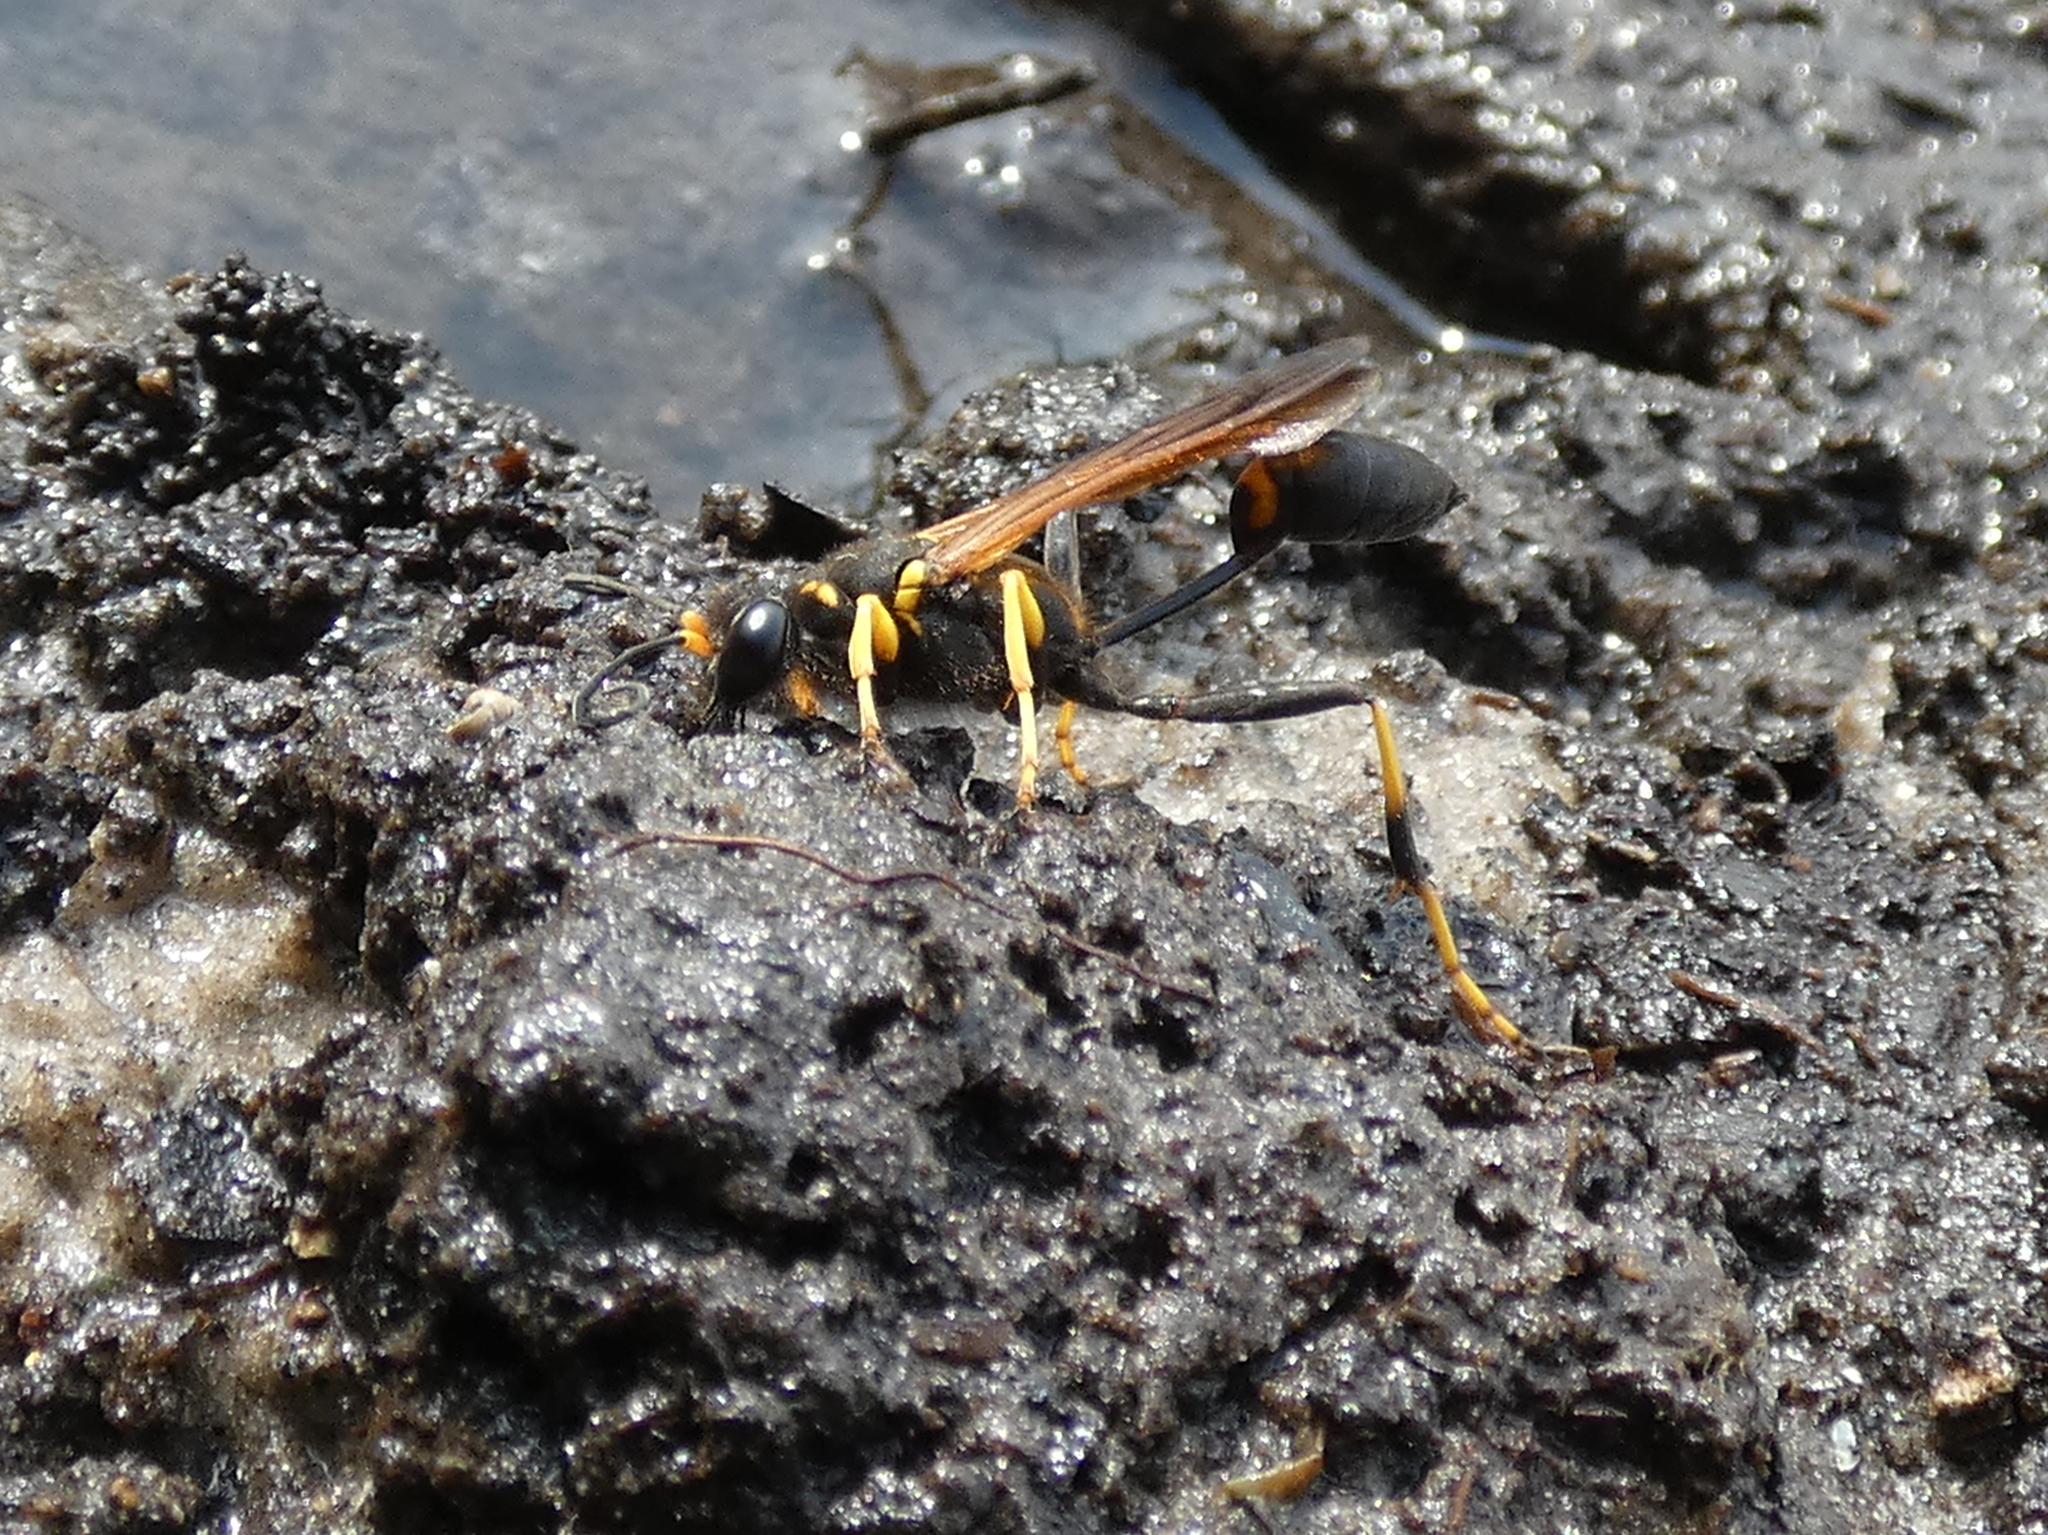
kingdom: Animalia
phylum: Arthropoda
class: Insecta
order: Hymenoptera
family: Sphecidae
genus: Sceliphron
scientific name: Sceliphron caementarium
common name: Mud dauber
